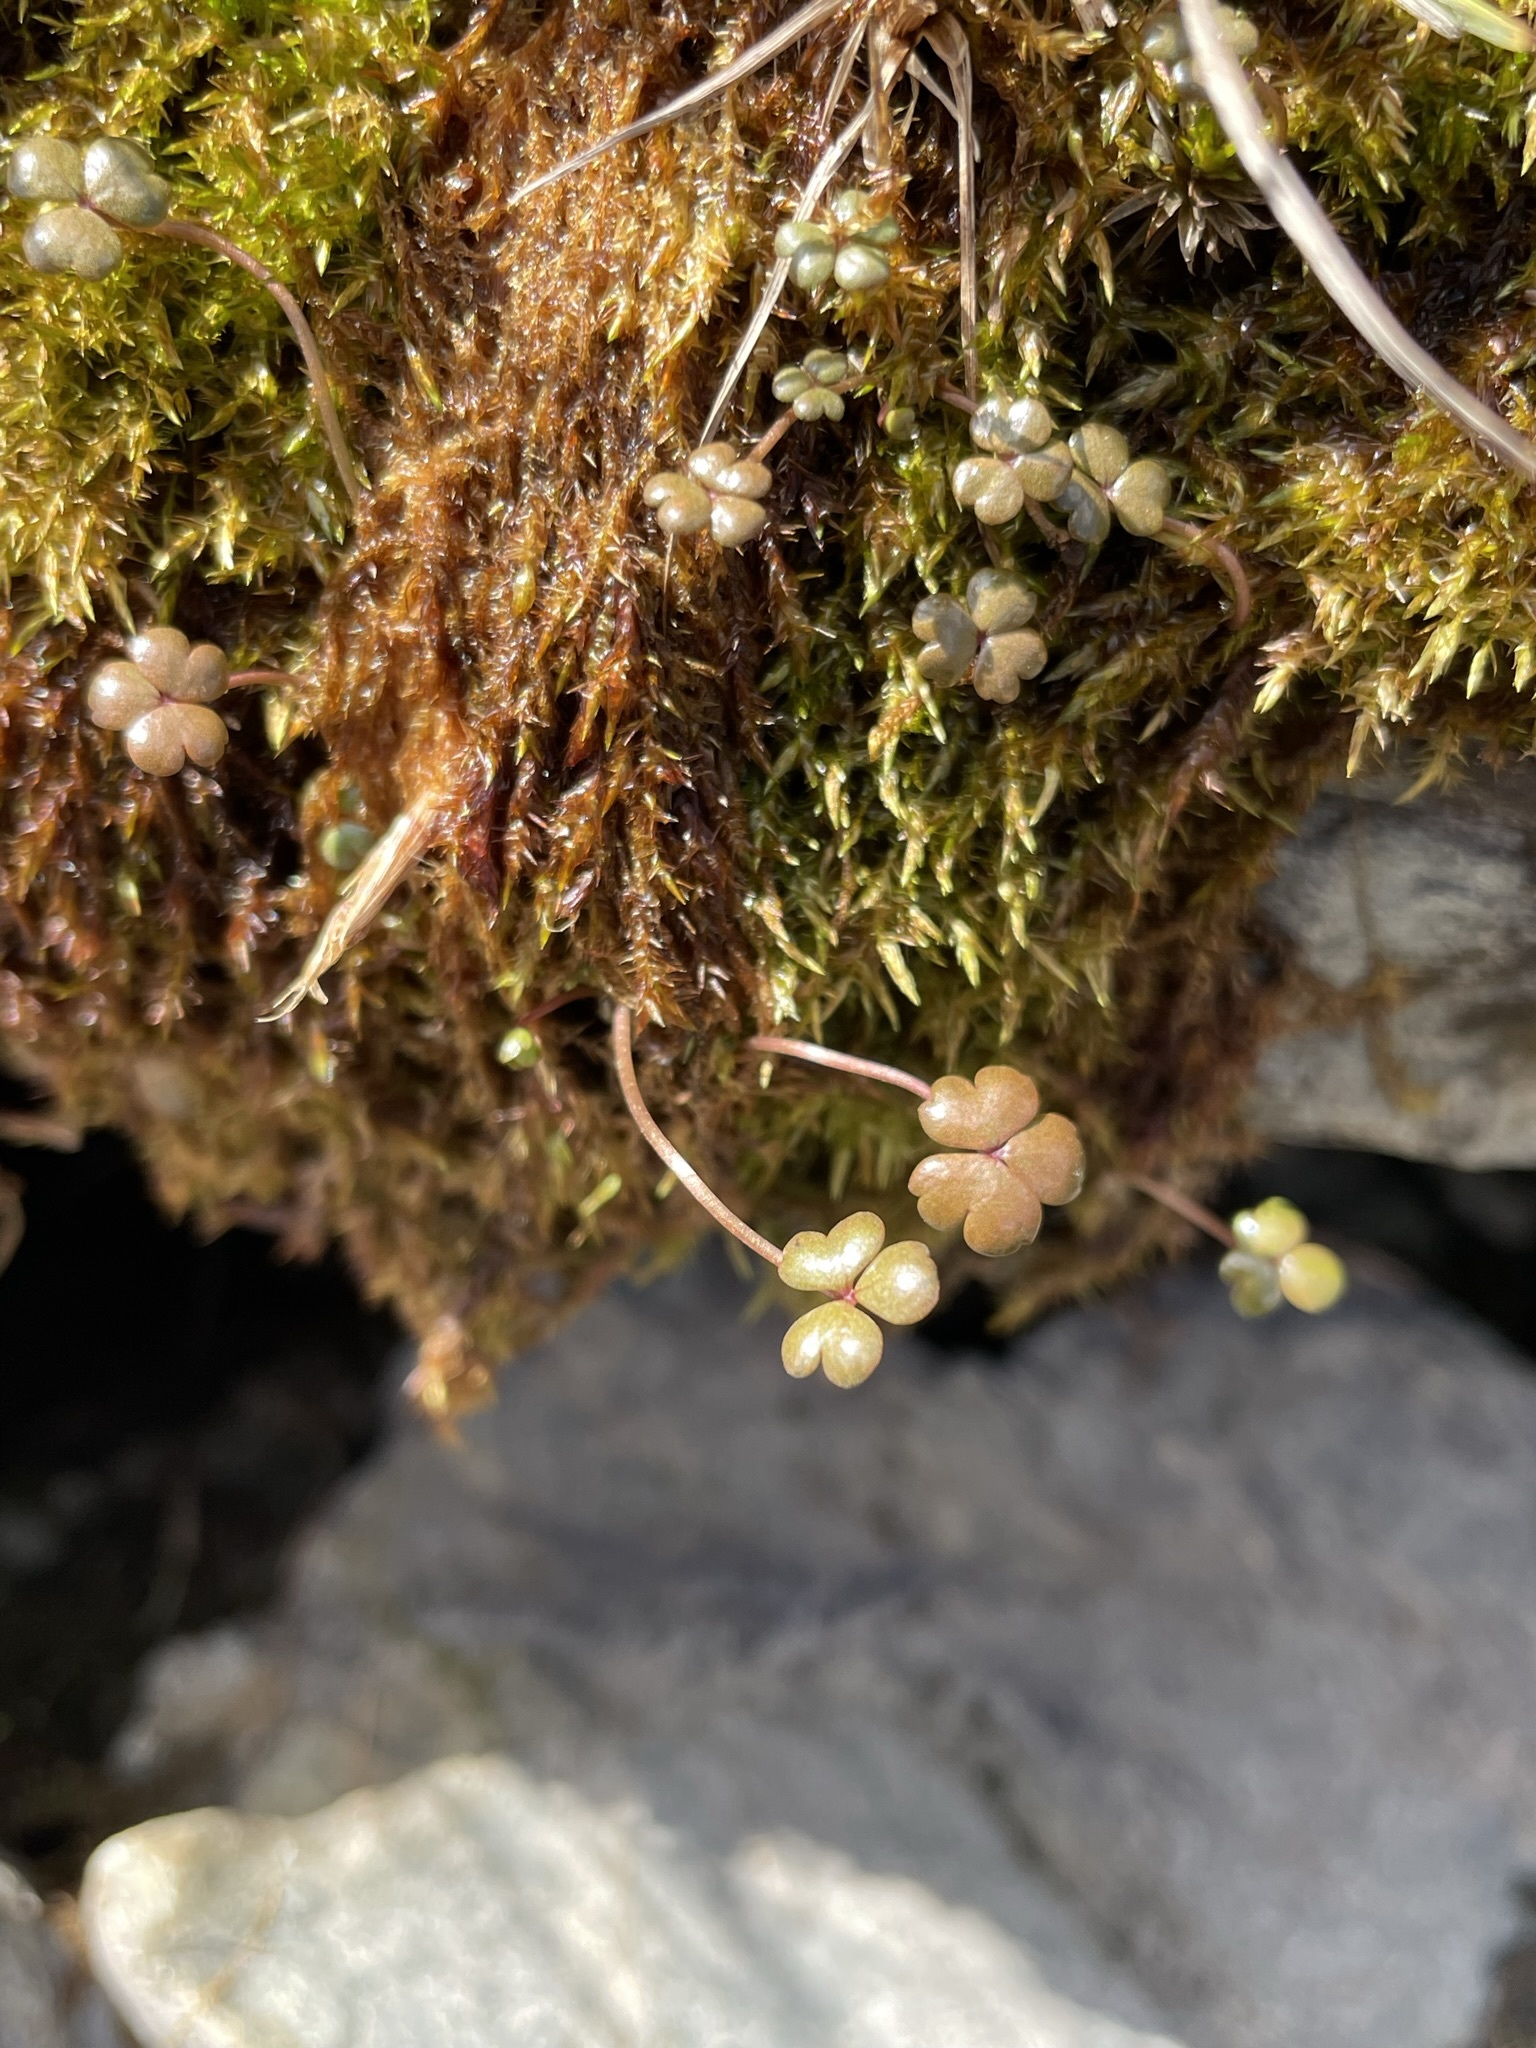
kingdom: Plantae
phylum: Tracheophyta
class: Magnoliopsida
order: Apiales
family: Araliaceae
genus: Hydrocotyle
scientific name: Hydrocotyle sulcata
